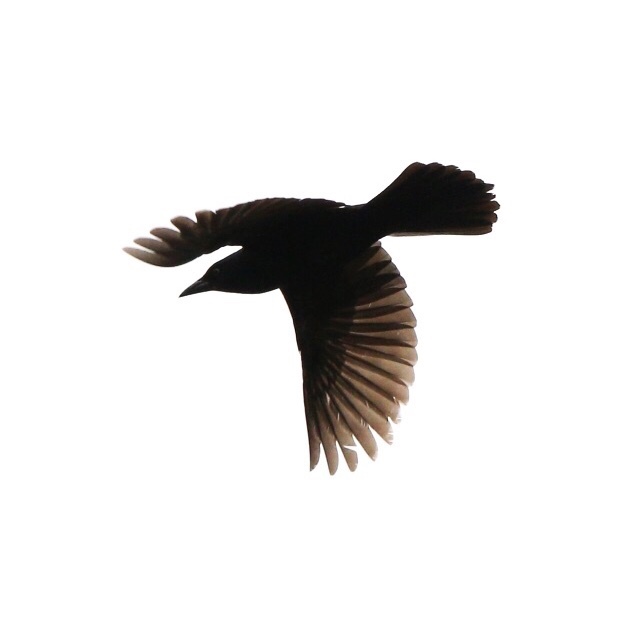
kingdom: Animalia
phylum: Chordata
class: Aves
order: Passeriformes
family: Icteridae
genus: Quiscalus
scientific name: Quiscalus quiscula
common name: Common grackle
